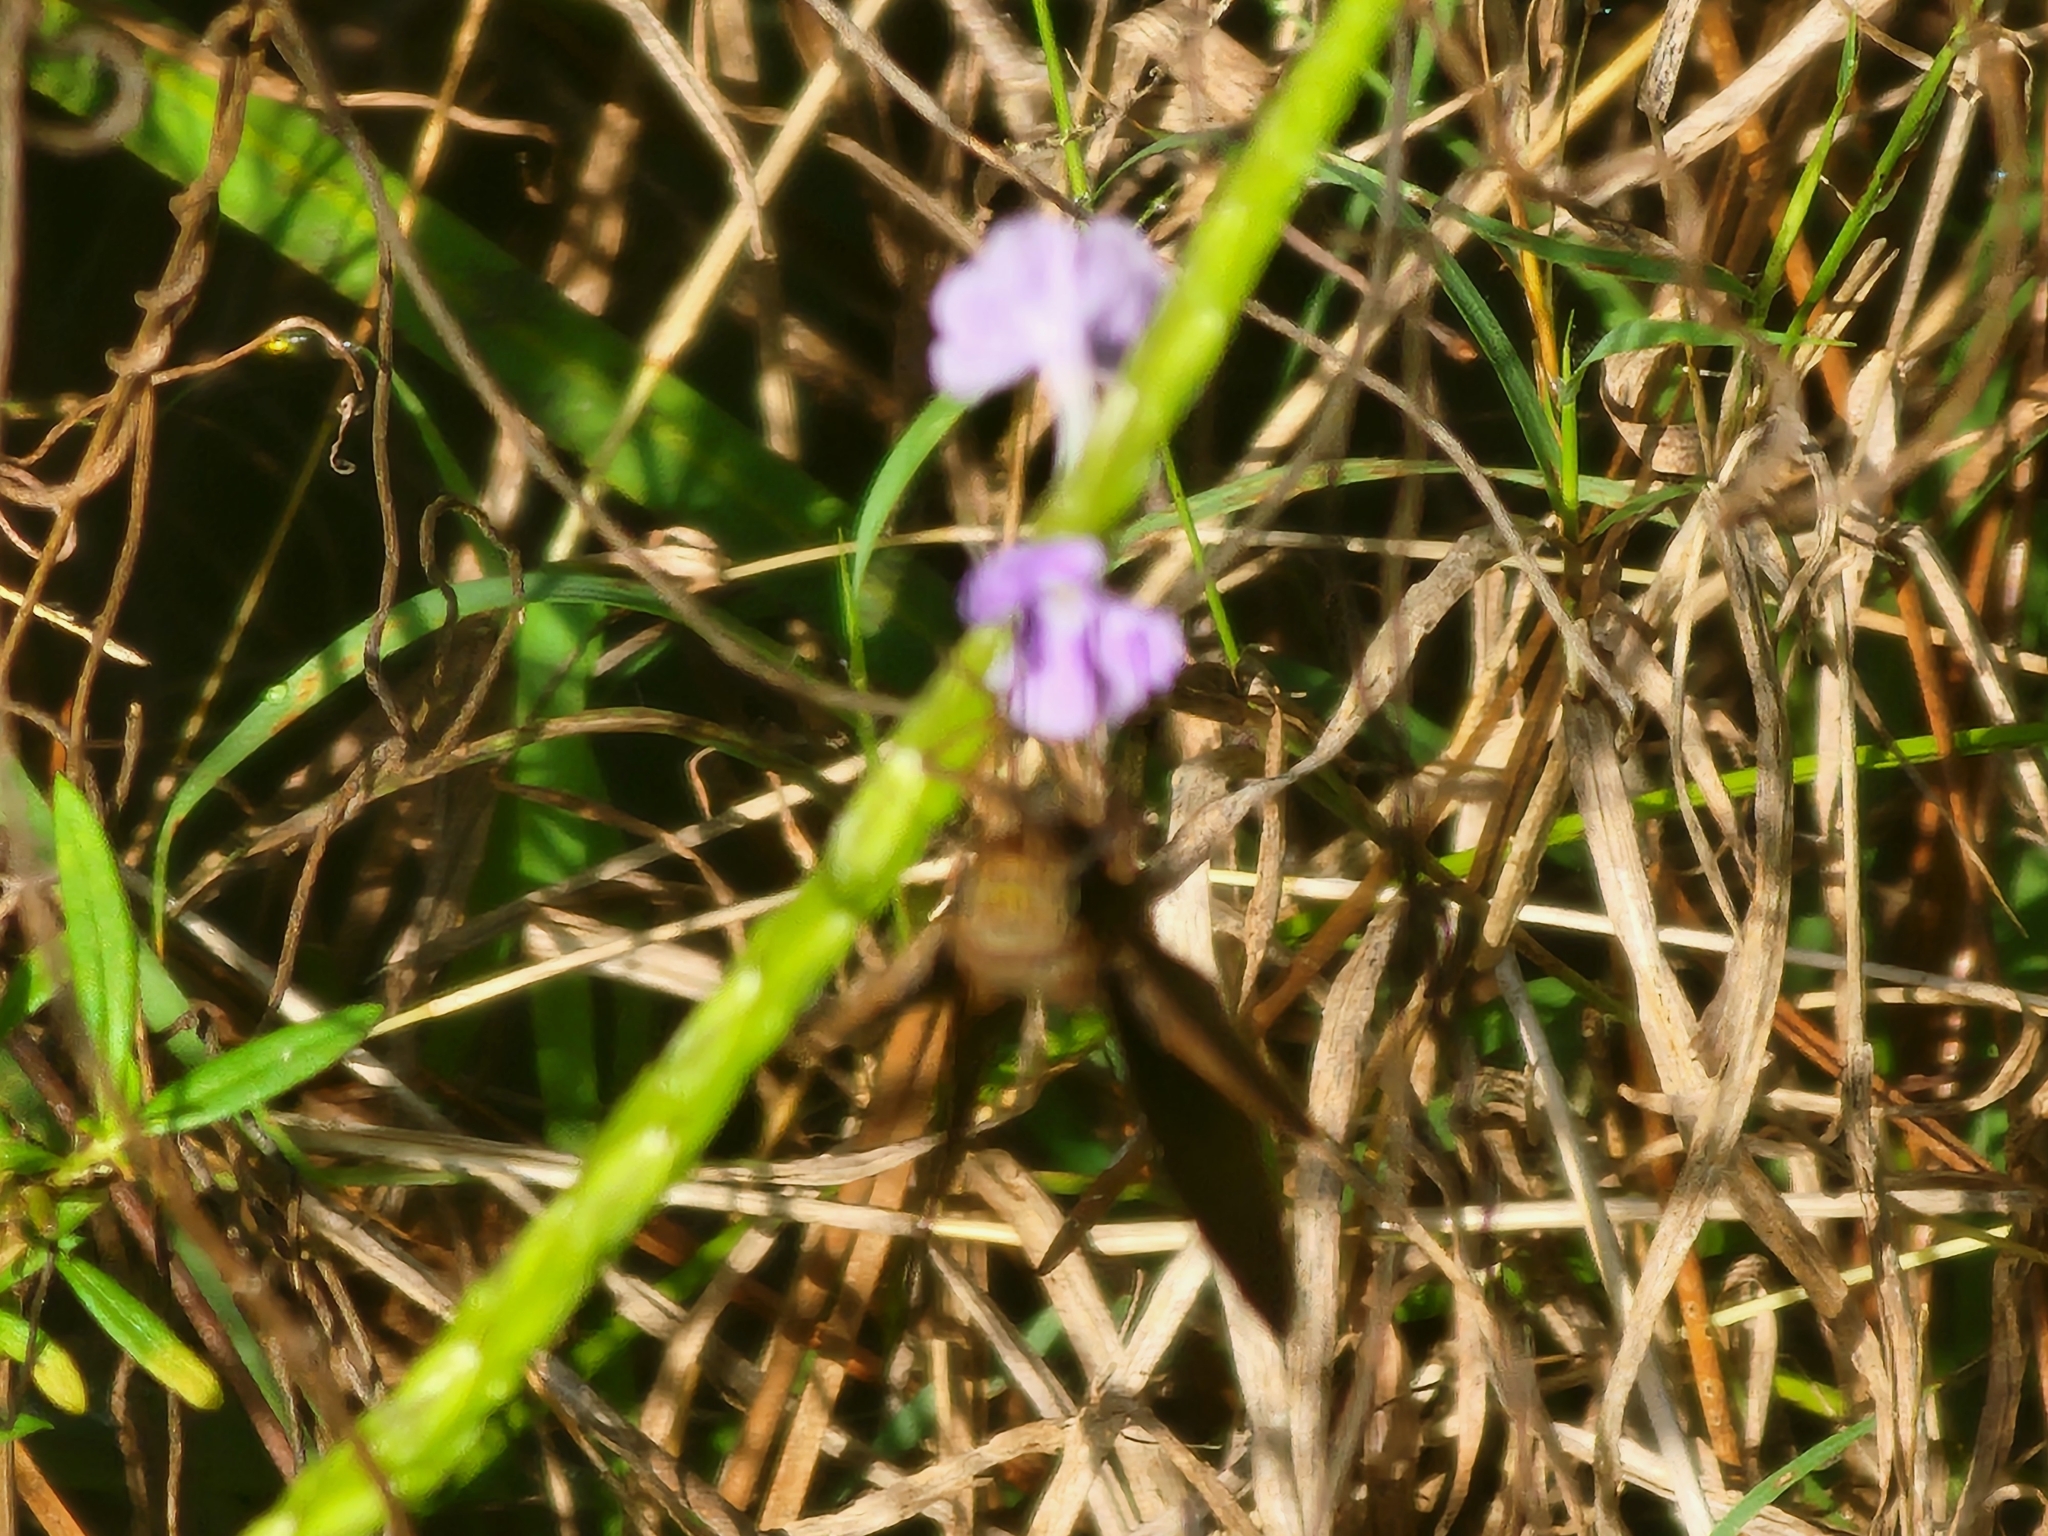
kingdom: Animalia
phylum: Arthropoda
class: Insecta
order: Lepidoptera
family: Hesperiidae
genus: Asbolis
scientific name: Asbolis capucinus
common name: Monk skipper
